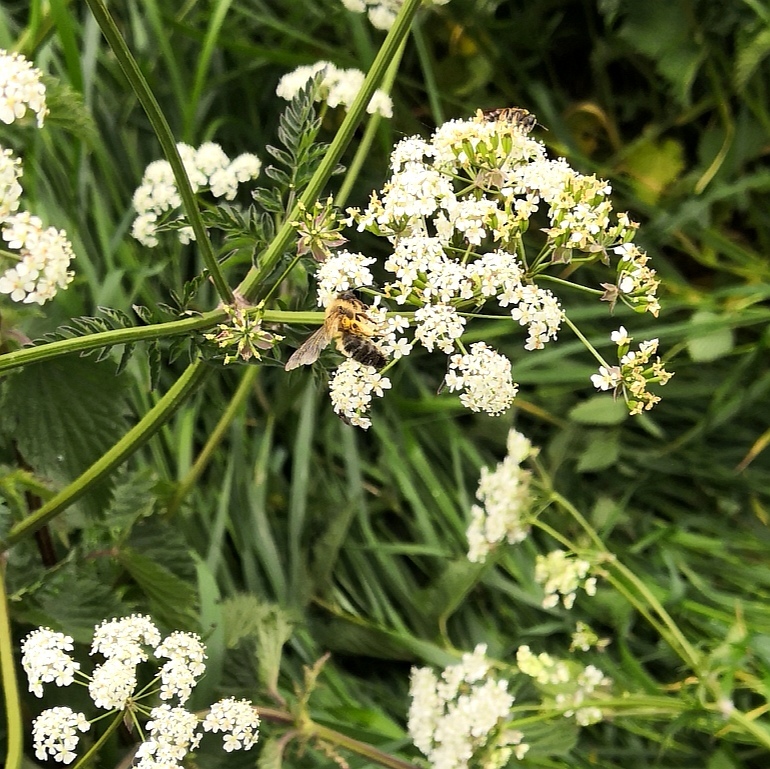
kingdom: Animalia
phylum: Arthropoda
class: Insecta
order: Hymenoptera
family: Andrenidae
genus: Andrena
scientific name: Andrena
